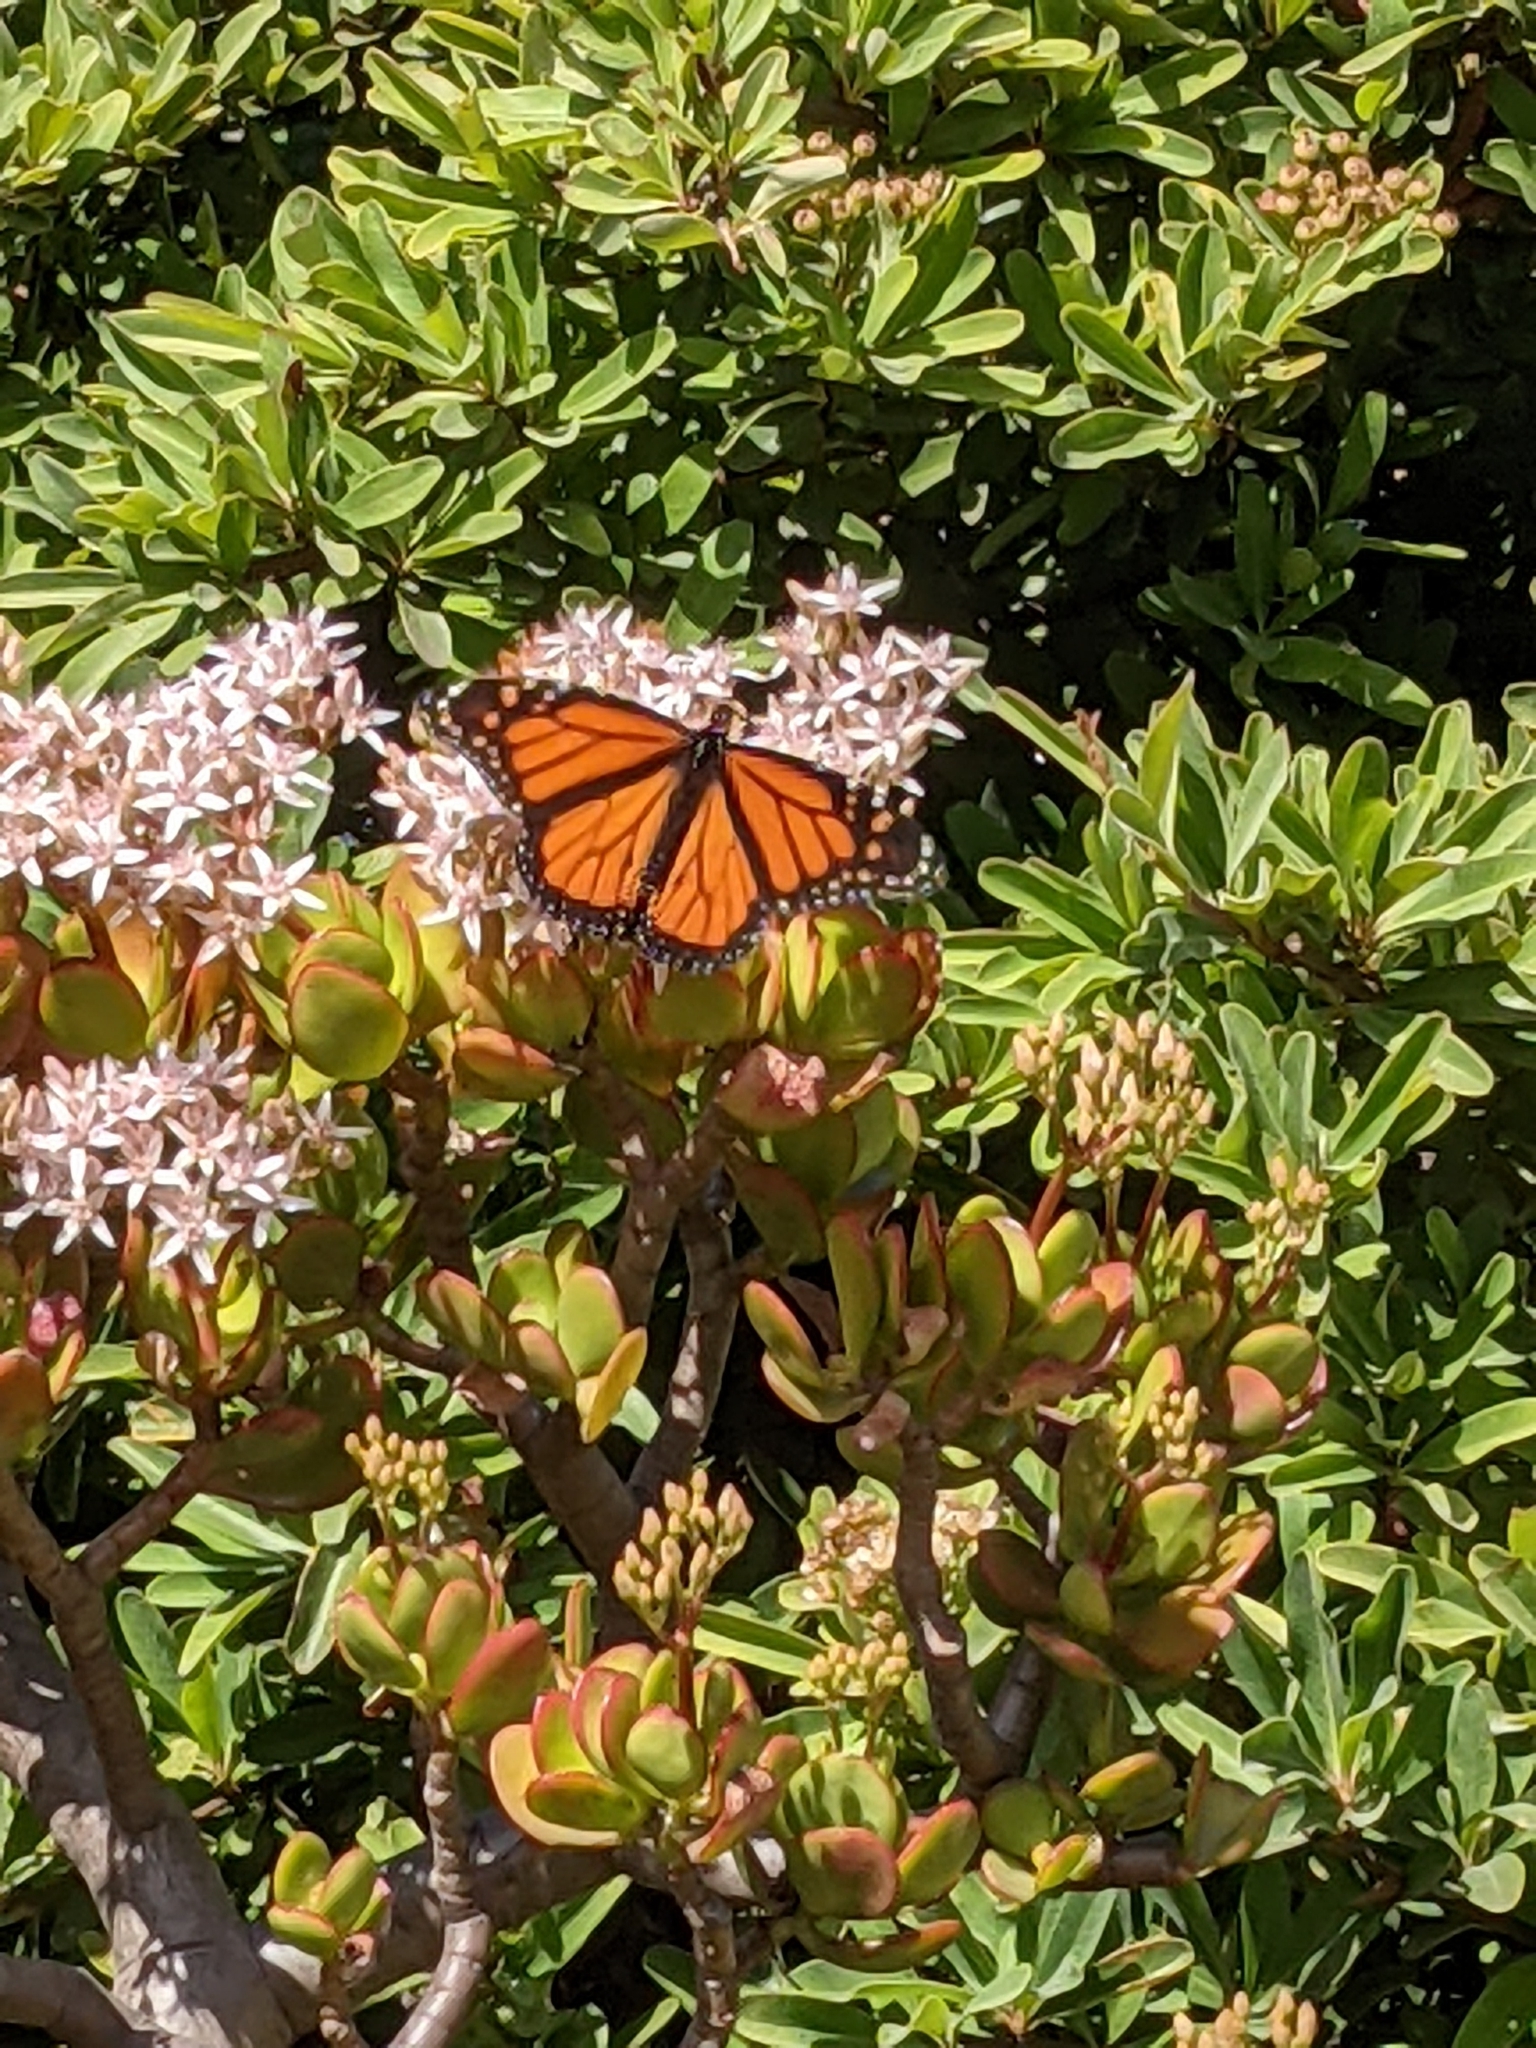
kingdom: Animalia
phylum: Arthropoda
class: Insecta
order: Lepidoptera
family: Nymphalidae
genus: Danaus
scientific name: Danaus plexippus
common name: Monarch
